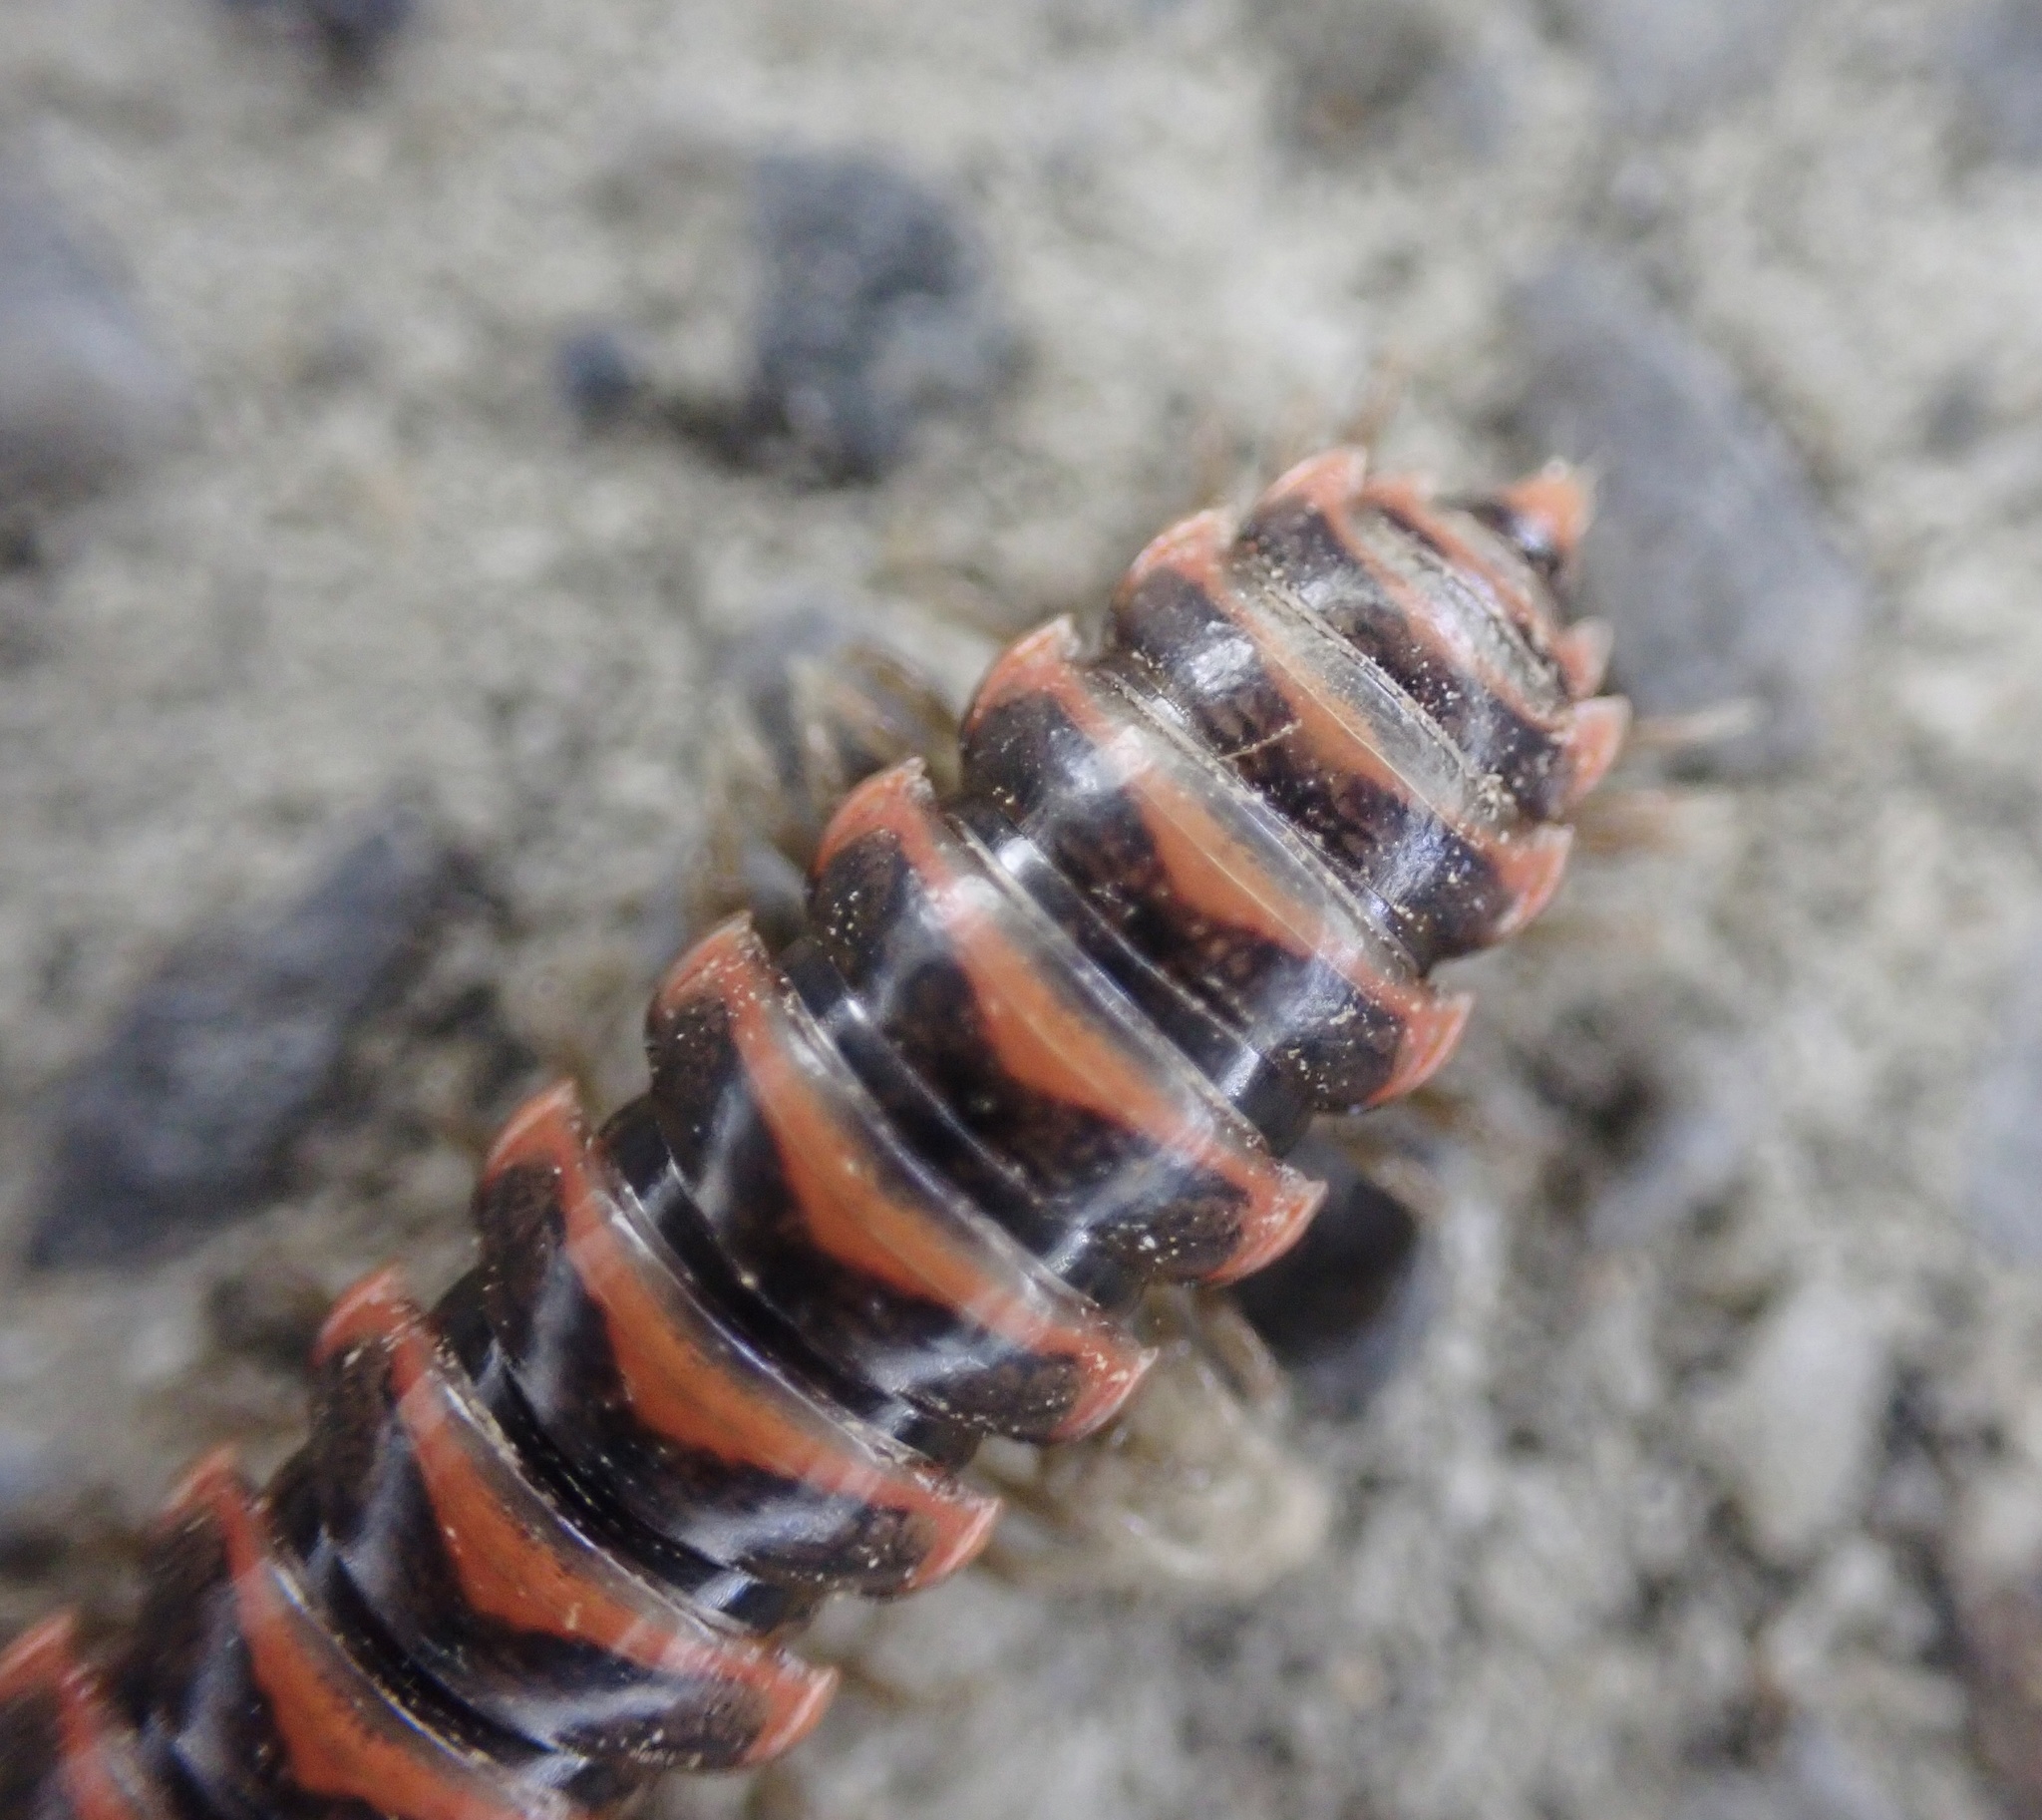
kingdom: Animalia
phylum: Arthropoda
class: Diplopoda
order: Polydesmida
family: Xystodesmidae
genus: Oenomaea
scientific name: Oenomaea pulchella
